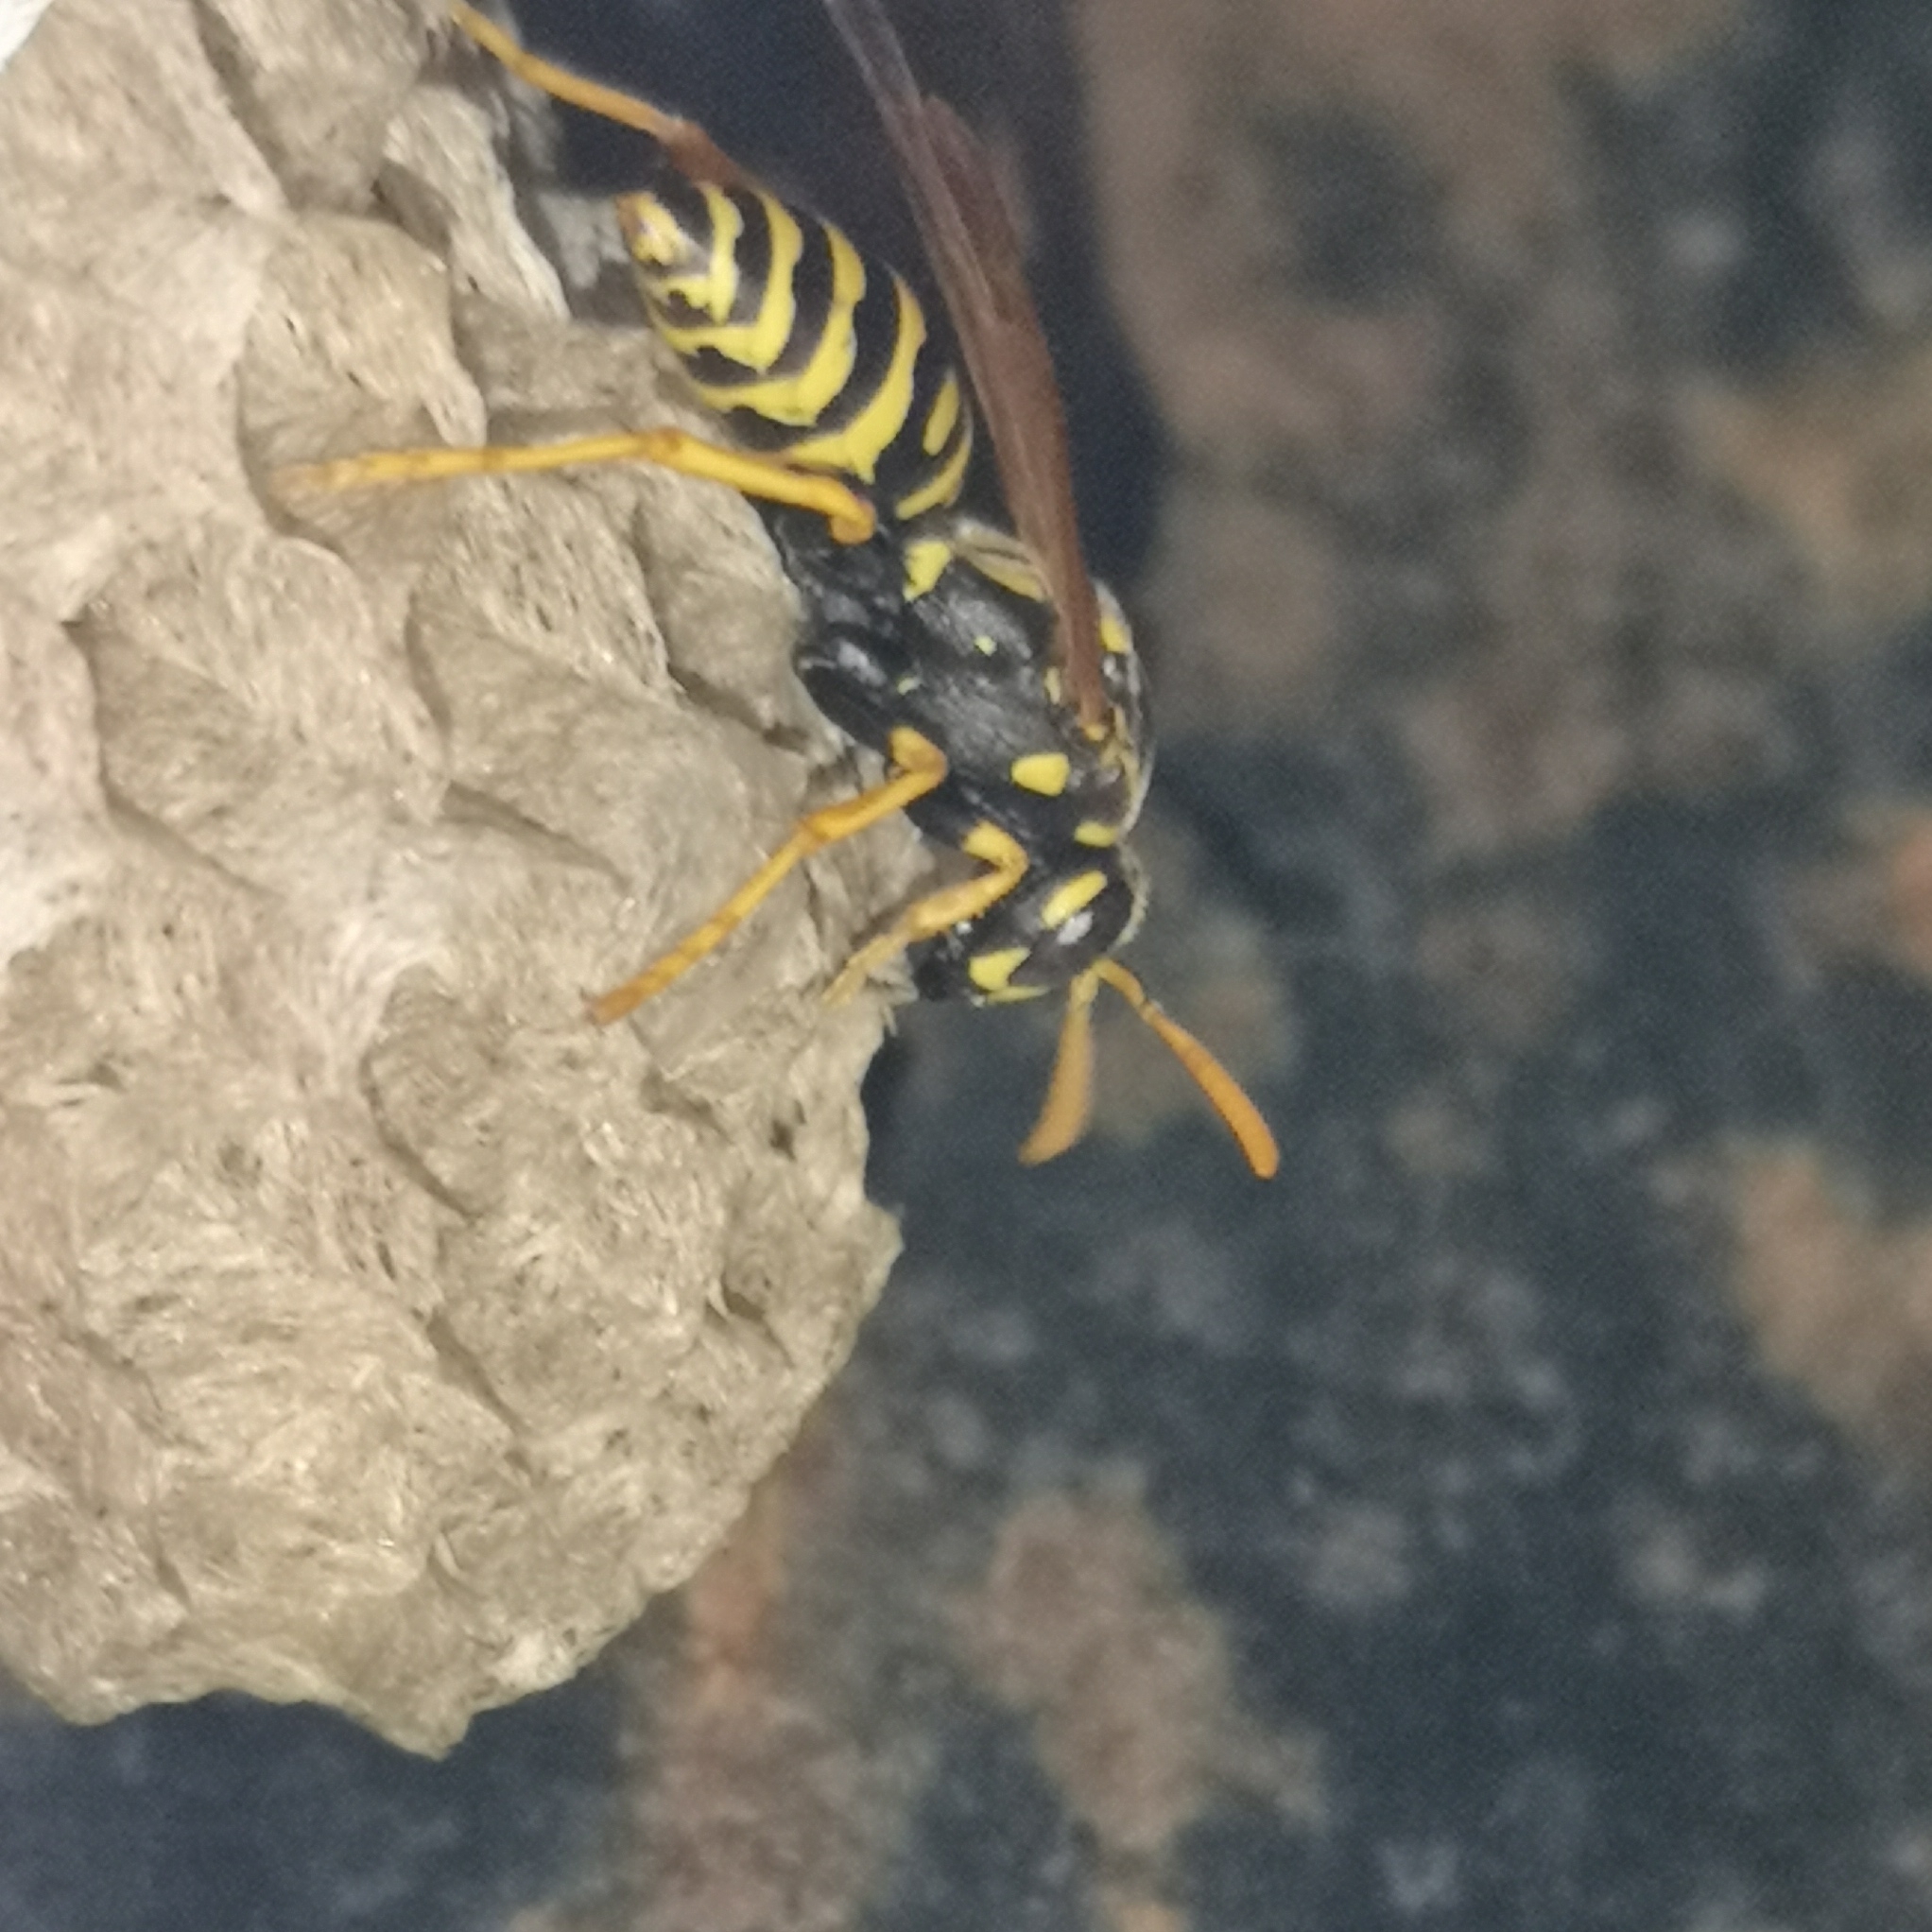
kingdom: Animalia
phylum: Arthropoda
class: Insecta
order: Hymenoptera
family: Eumenidae
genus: Polistes
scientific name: Polistes dominula
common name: Paper wasp
